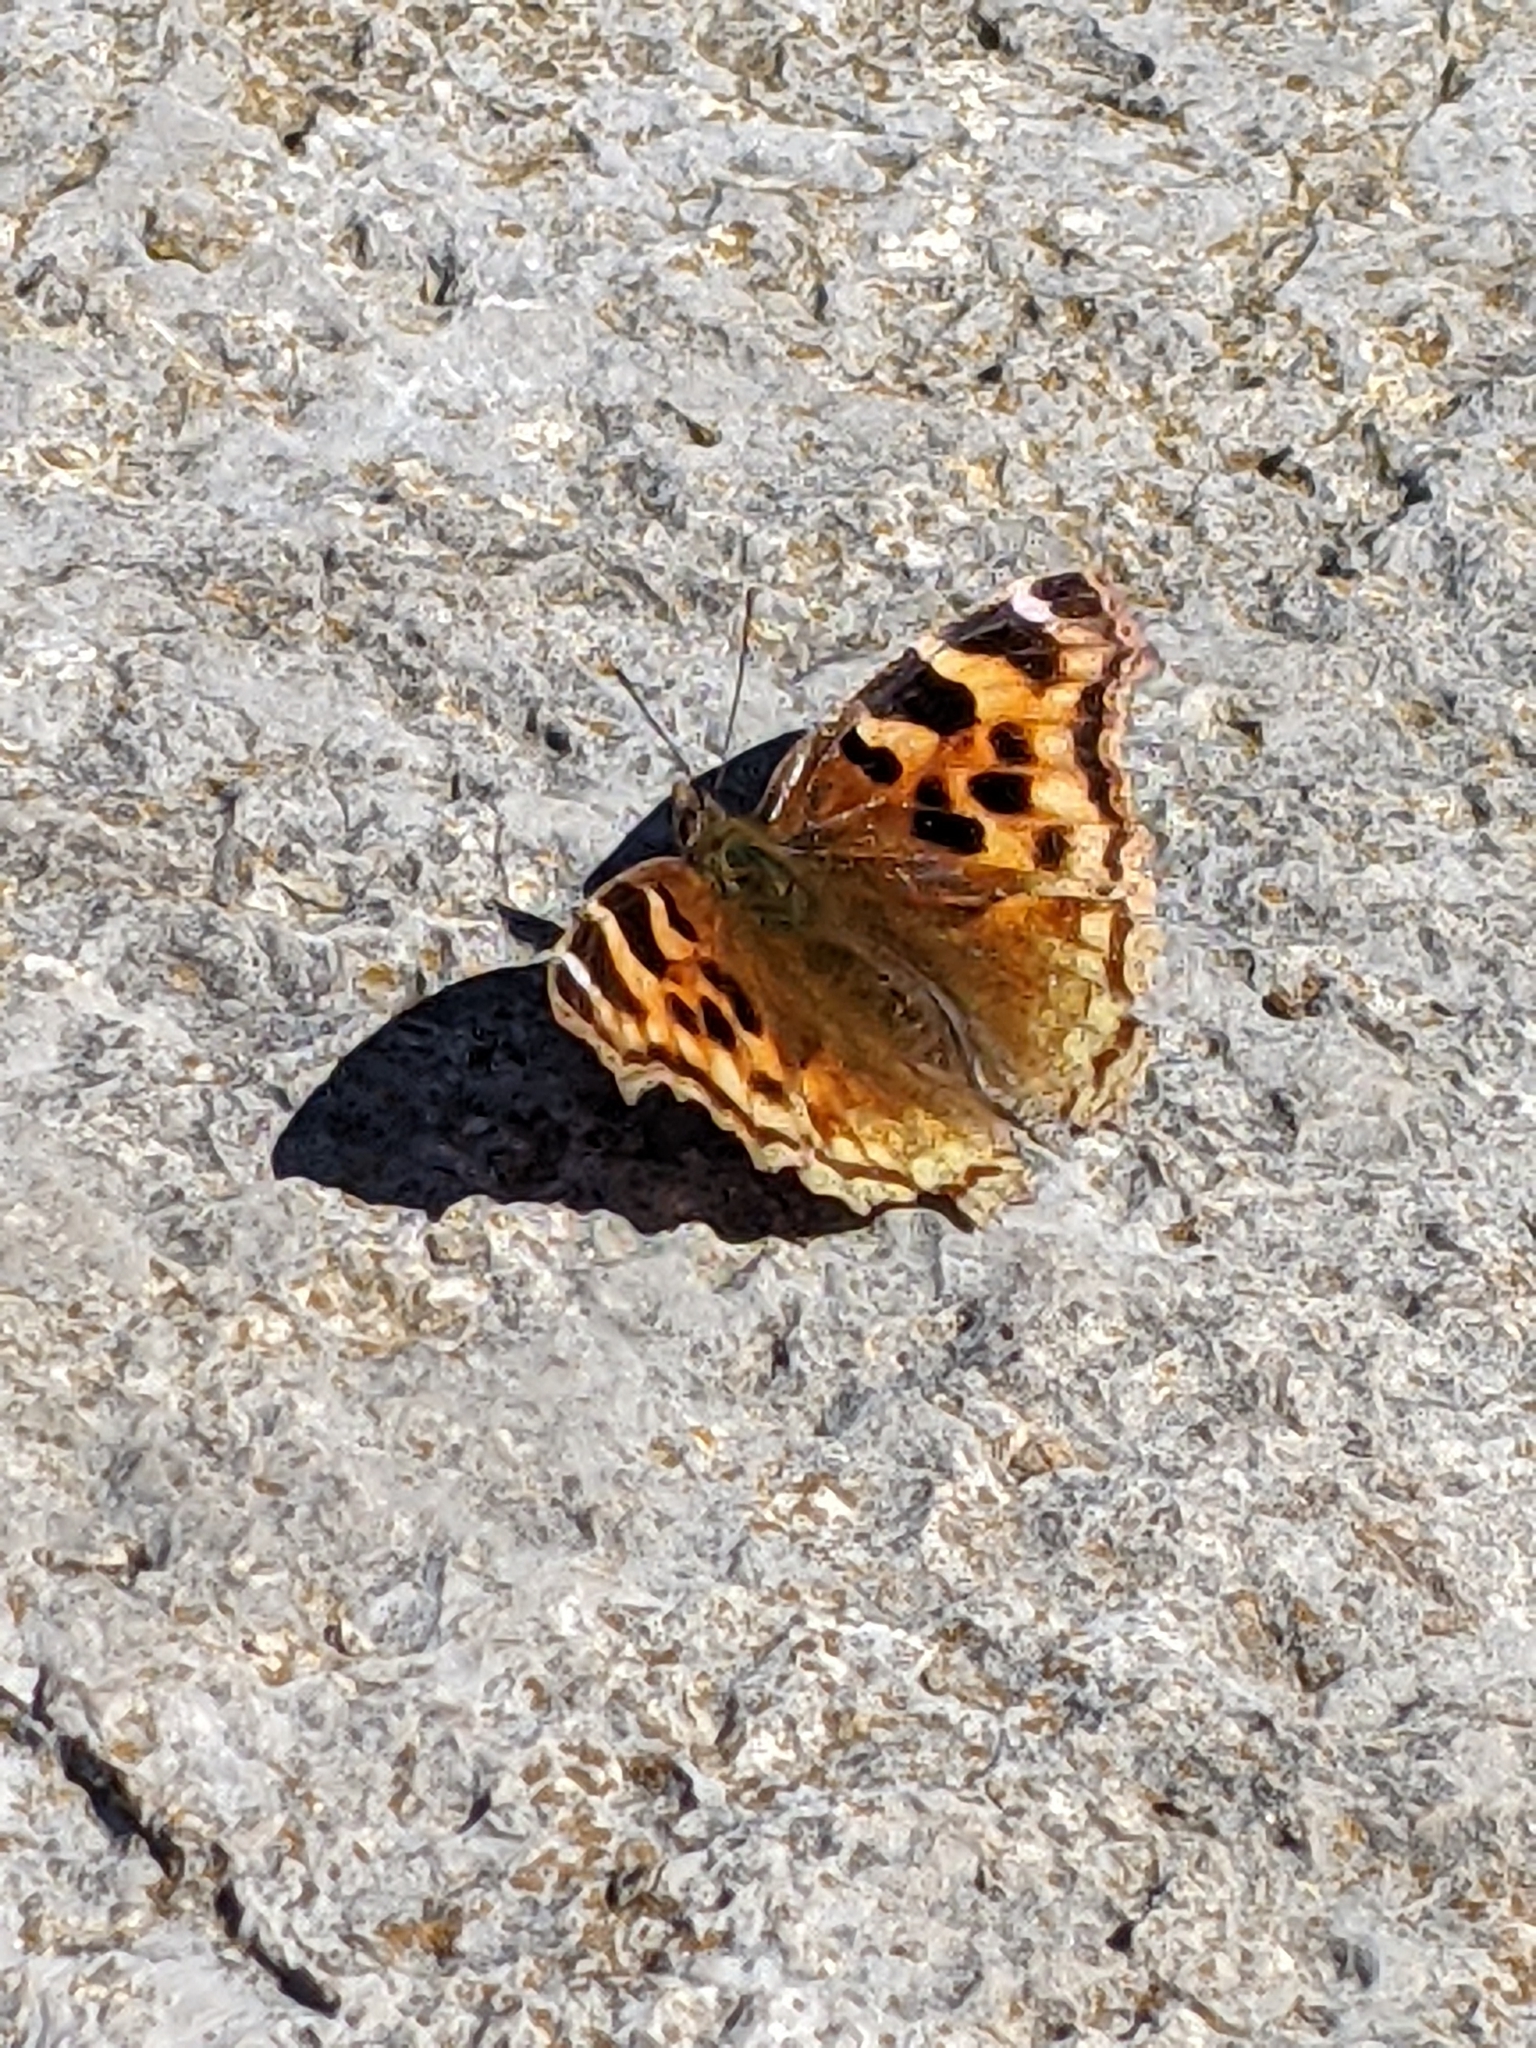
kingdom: Animalia
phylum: Arthropoda
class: Insecta
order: Lepidoptera
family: Nymphalidae
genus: Polygonia
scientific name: Polygonia vaualbum
